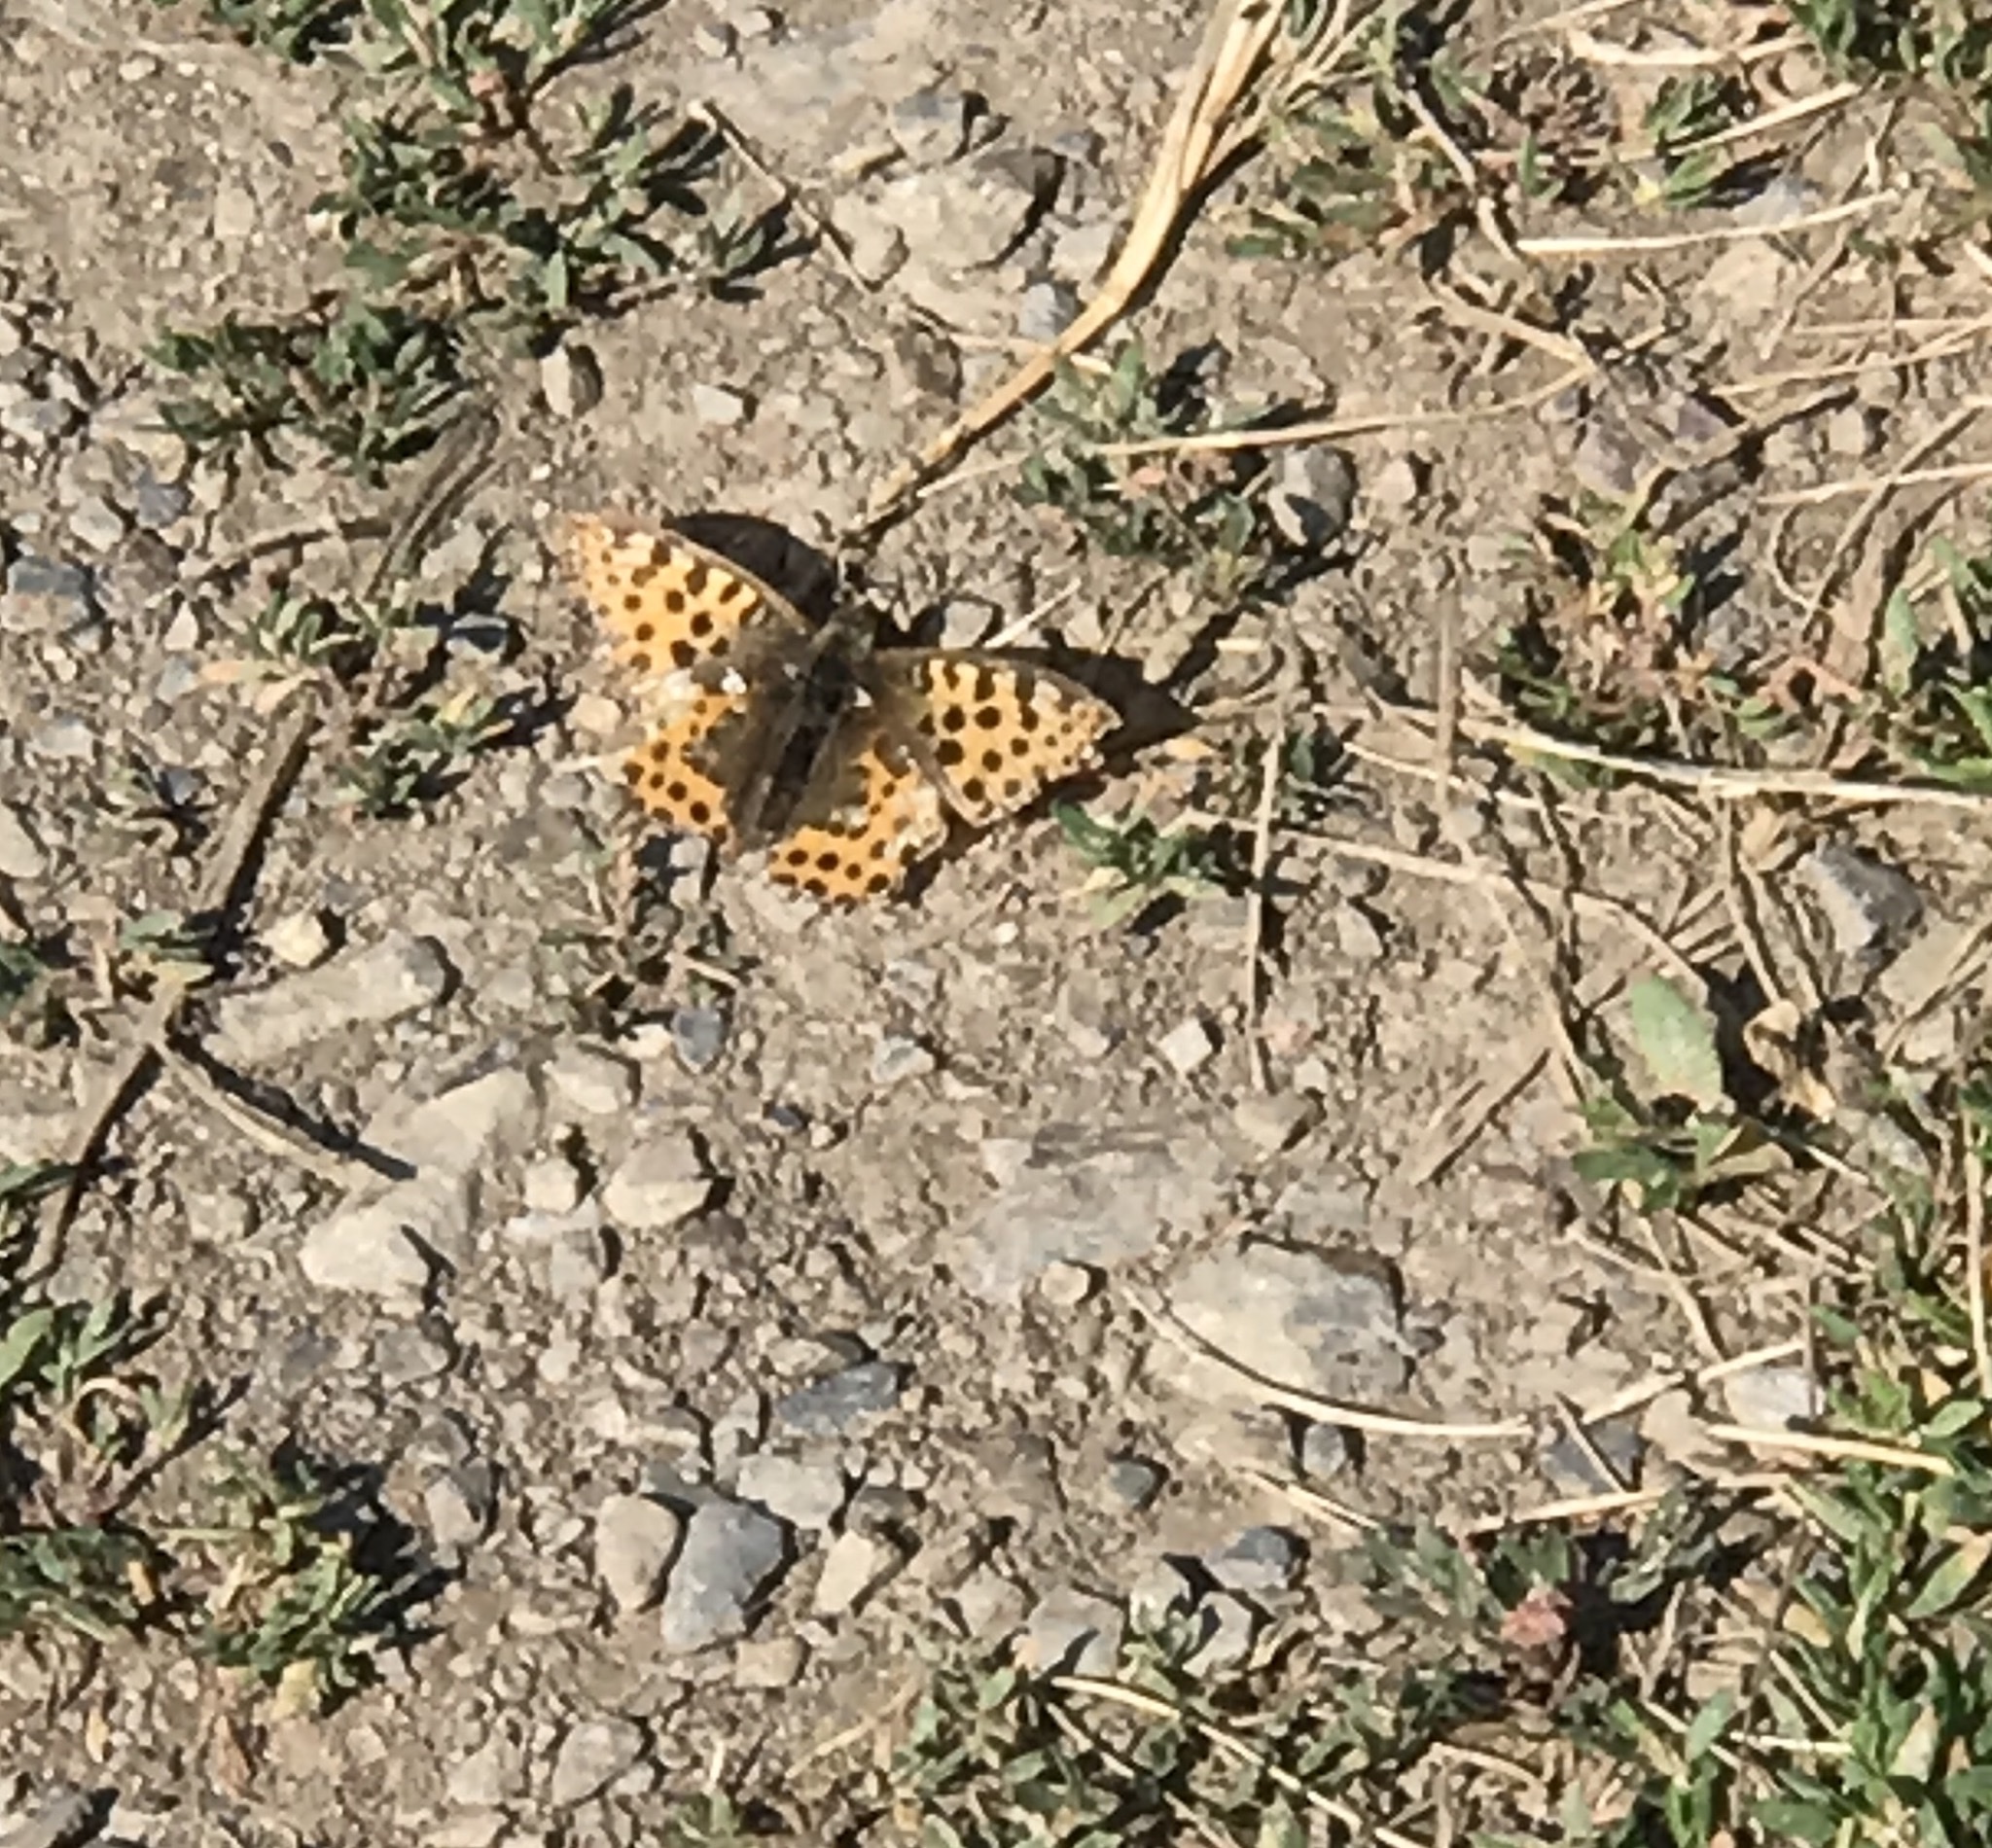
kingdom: Animalia
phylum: Arthropoda
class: Insecta
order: Lepidoptera
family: Nymphalidae
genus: Issoria
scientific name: Issoria lathonia
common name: Queen of spain fritillary
